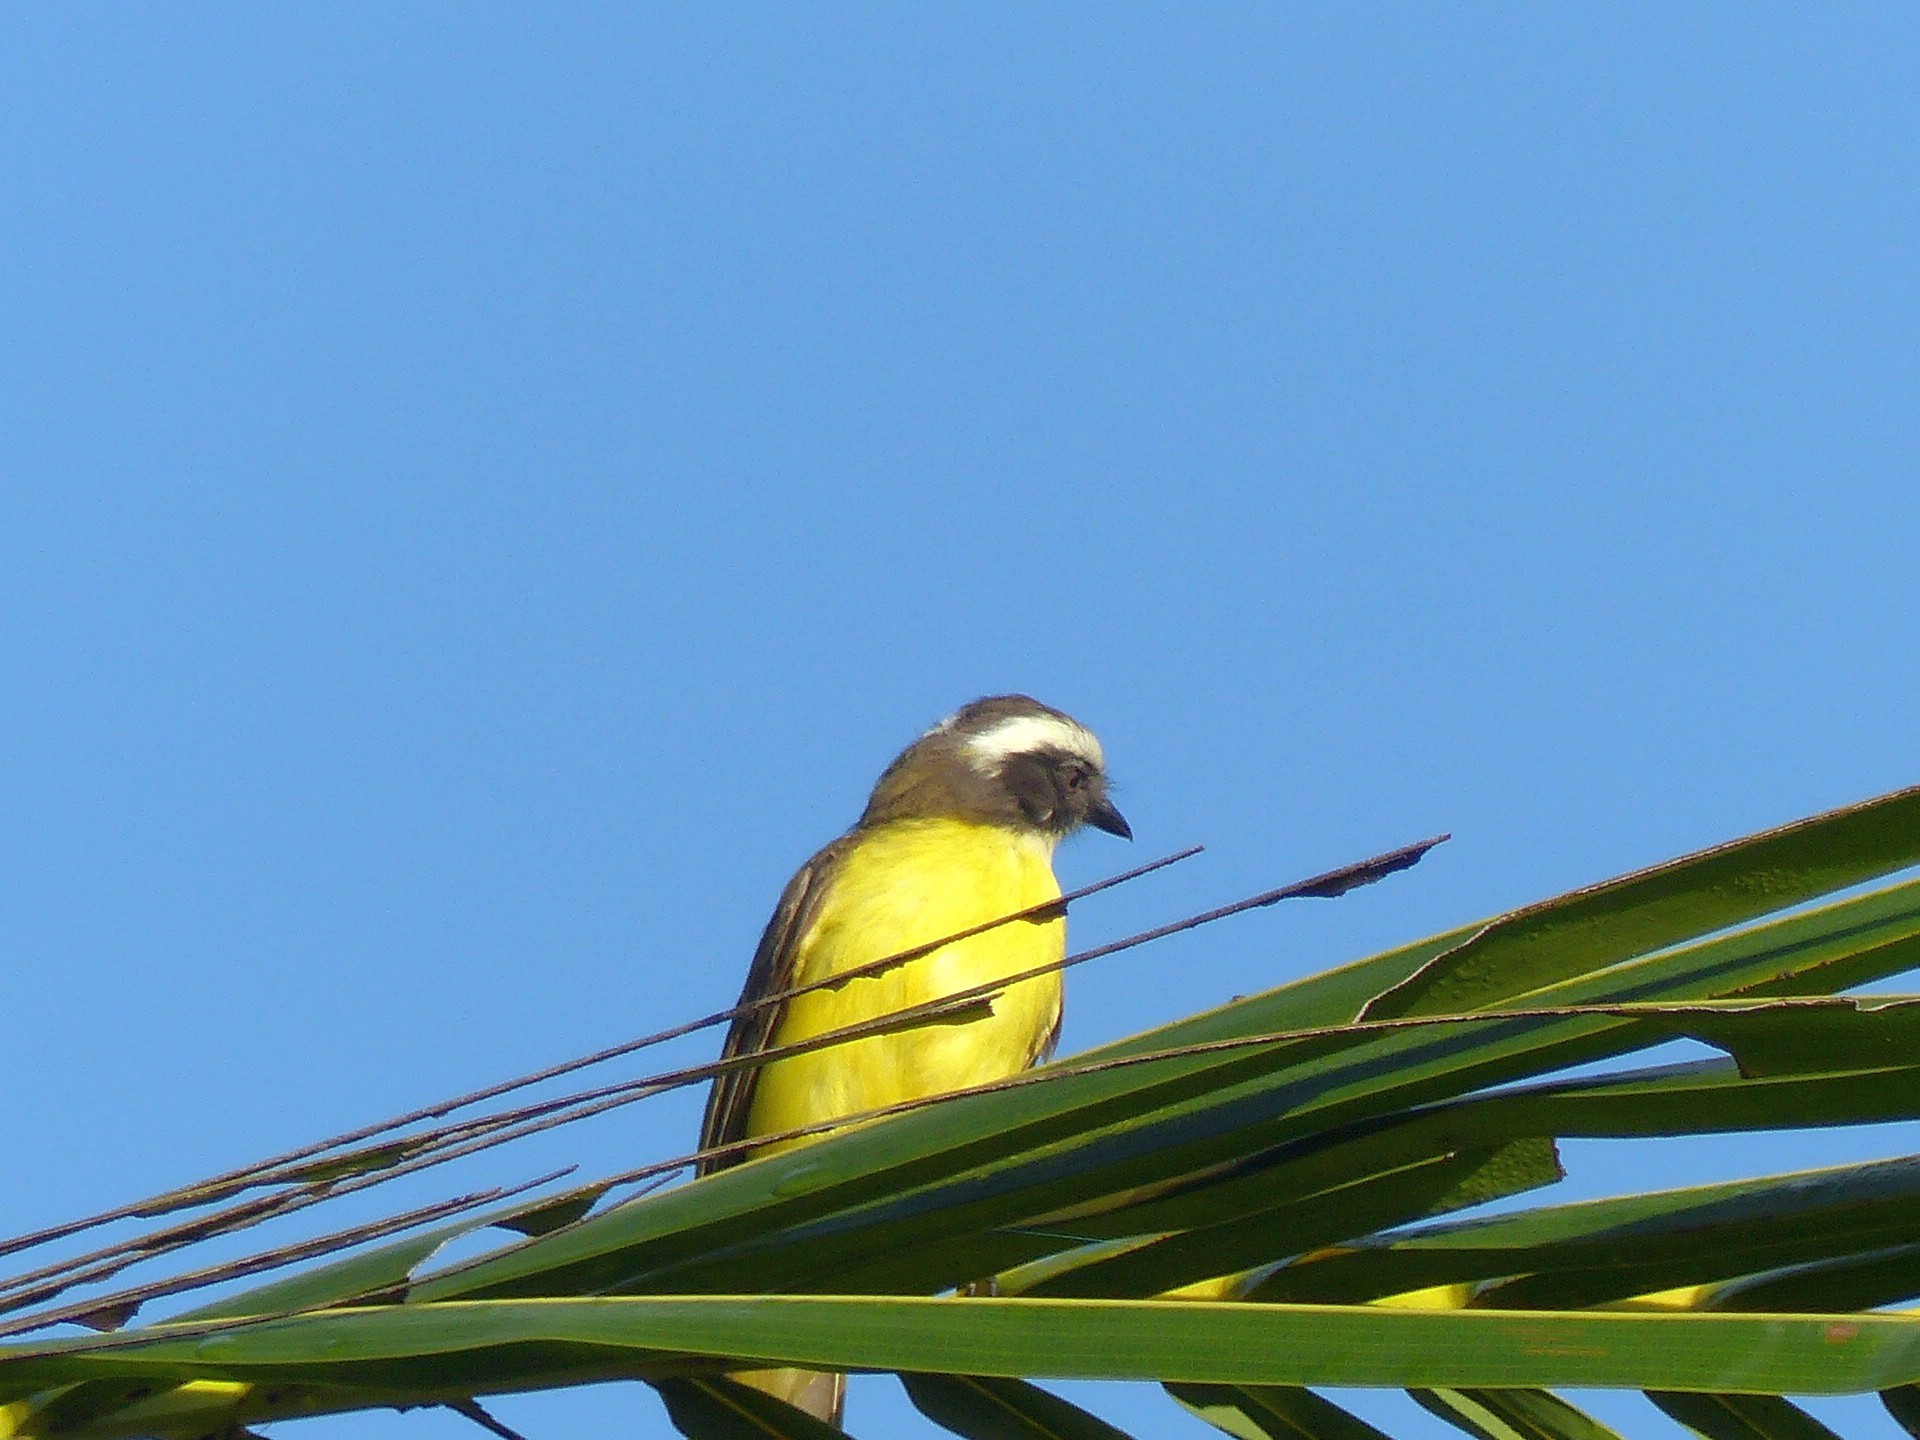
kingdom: Animalia
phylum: Chordata
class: Aves
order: Passeriformes
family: Tyrannidae
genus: Myiozetetes
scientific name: Myiozetetes similis
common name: Social flycatcher
